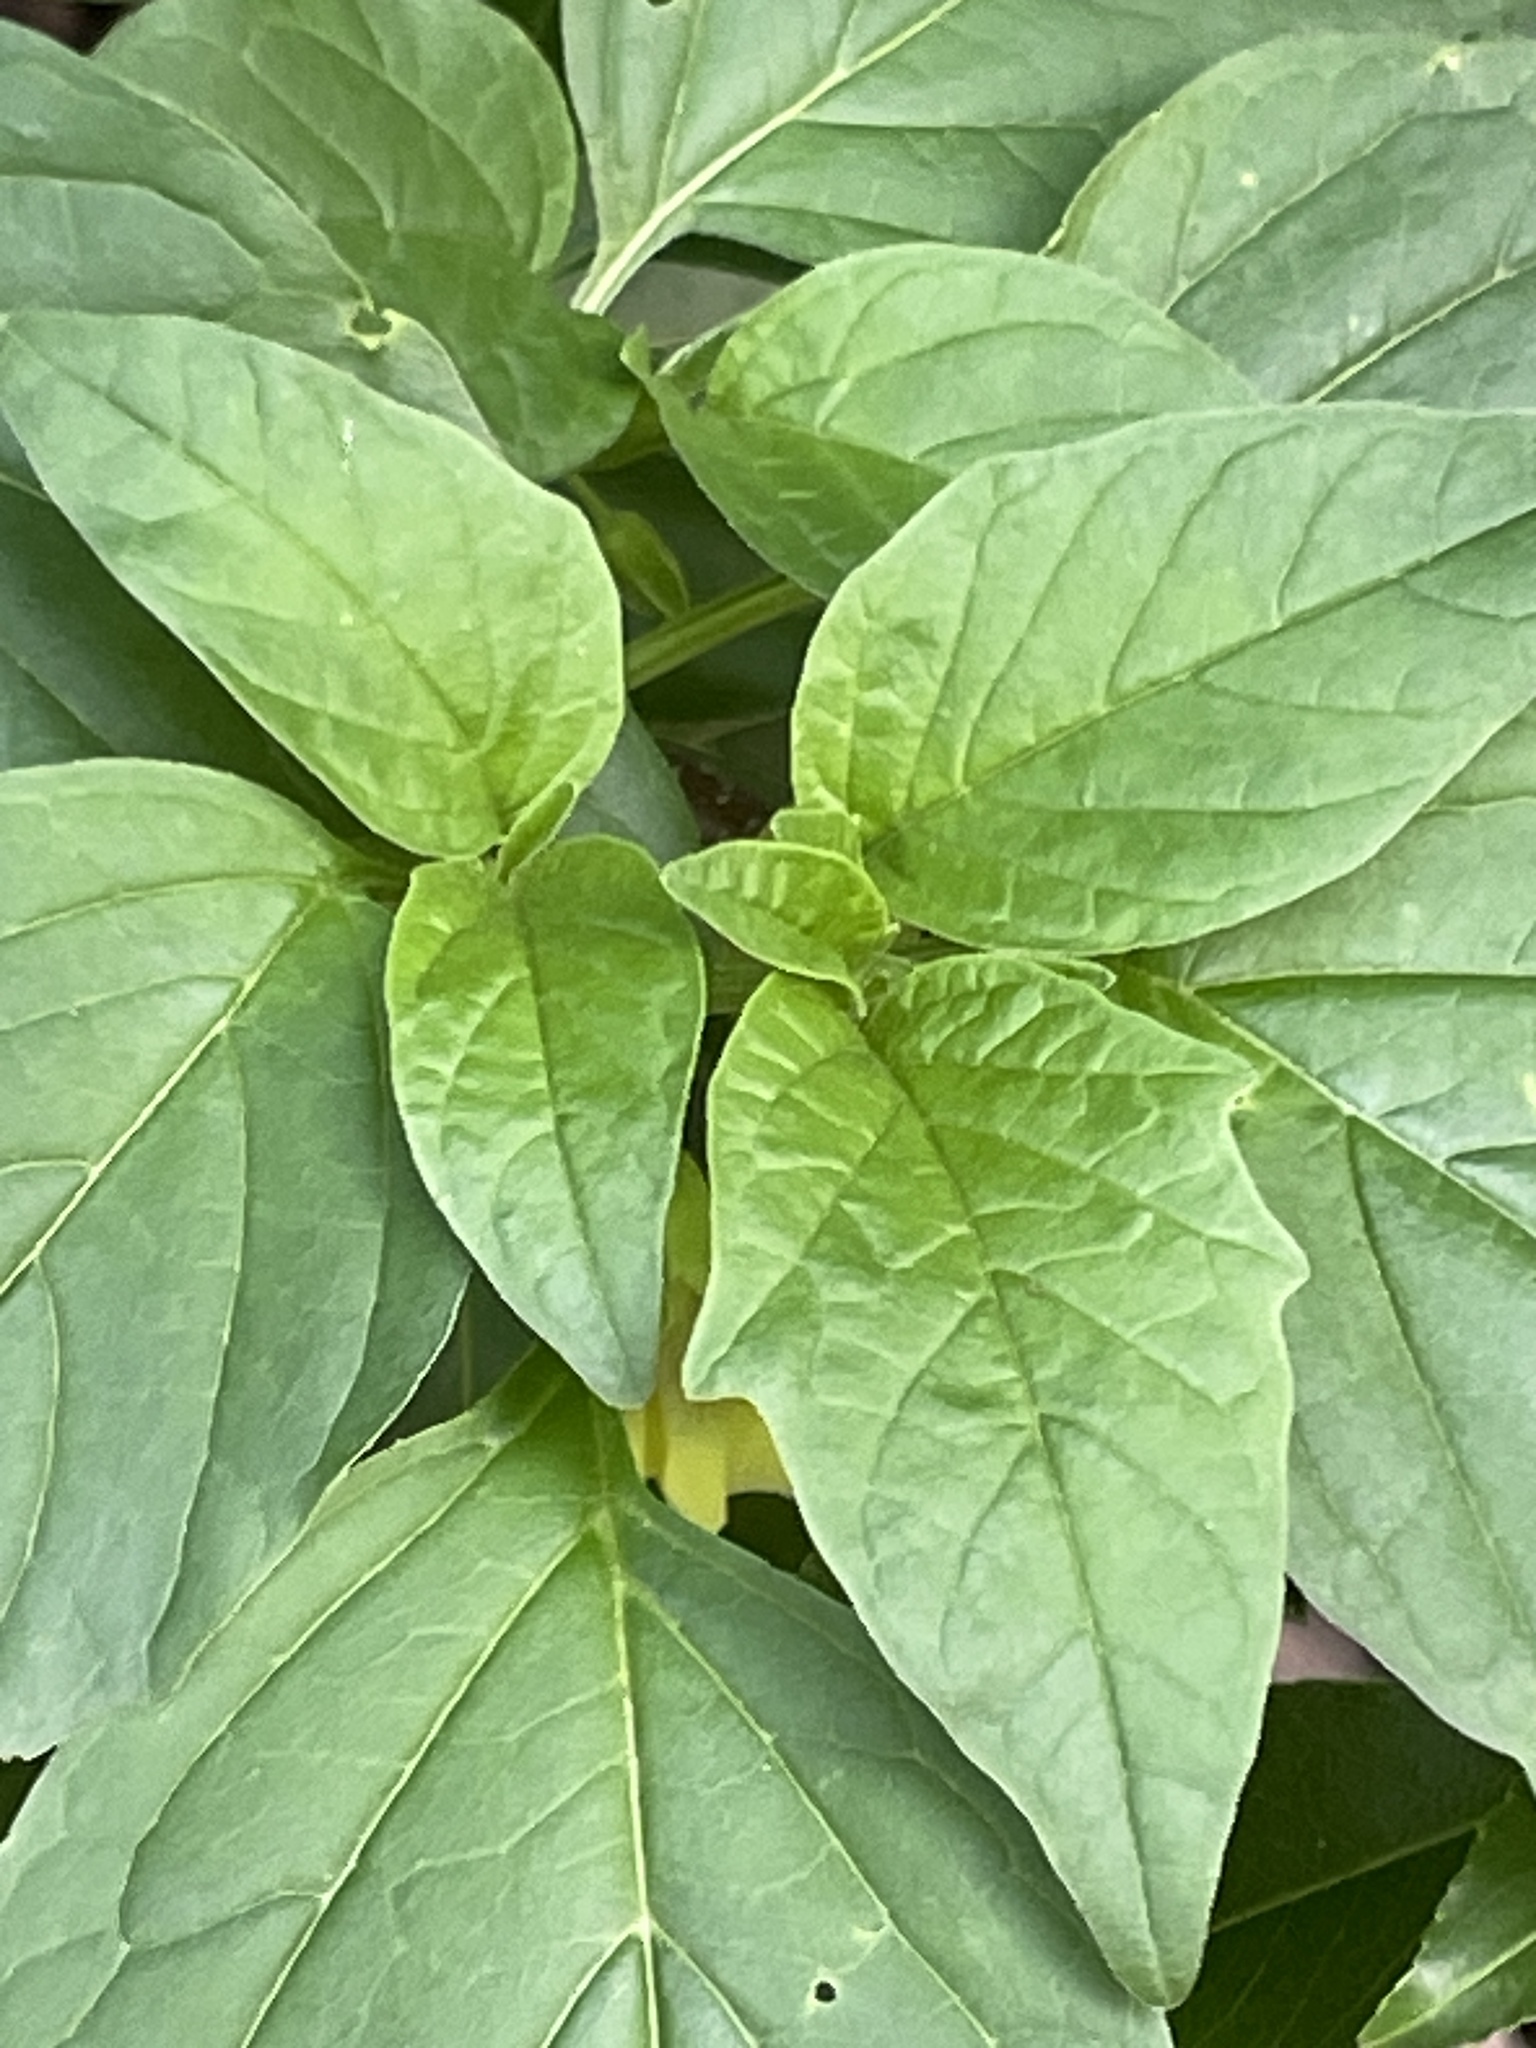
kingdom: Plantae
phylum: Tracheophyta
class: Magnoliopsida
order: Solanales
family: Solanaceae
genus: Physalis
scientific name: Physalis longifolia
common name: Common ground-cherry
